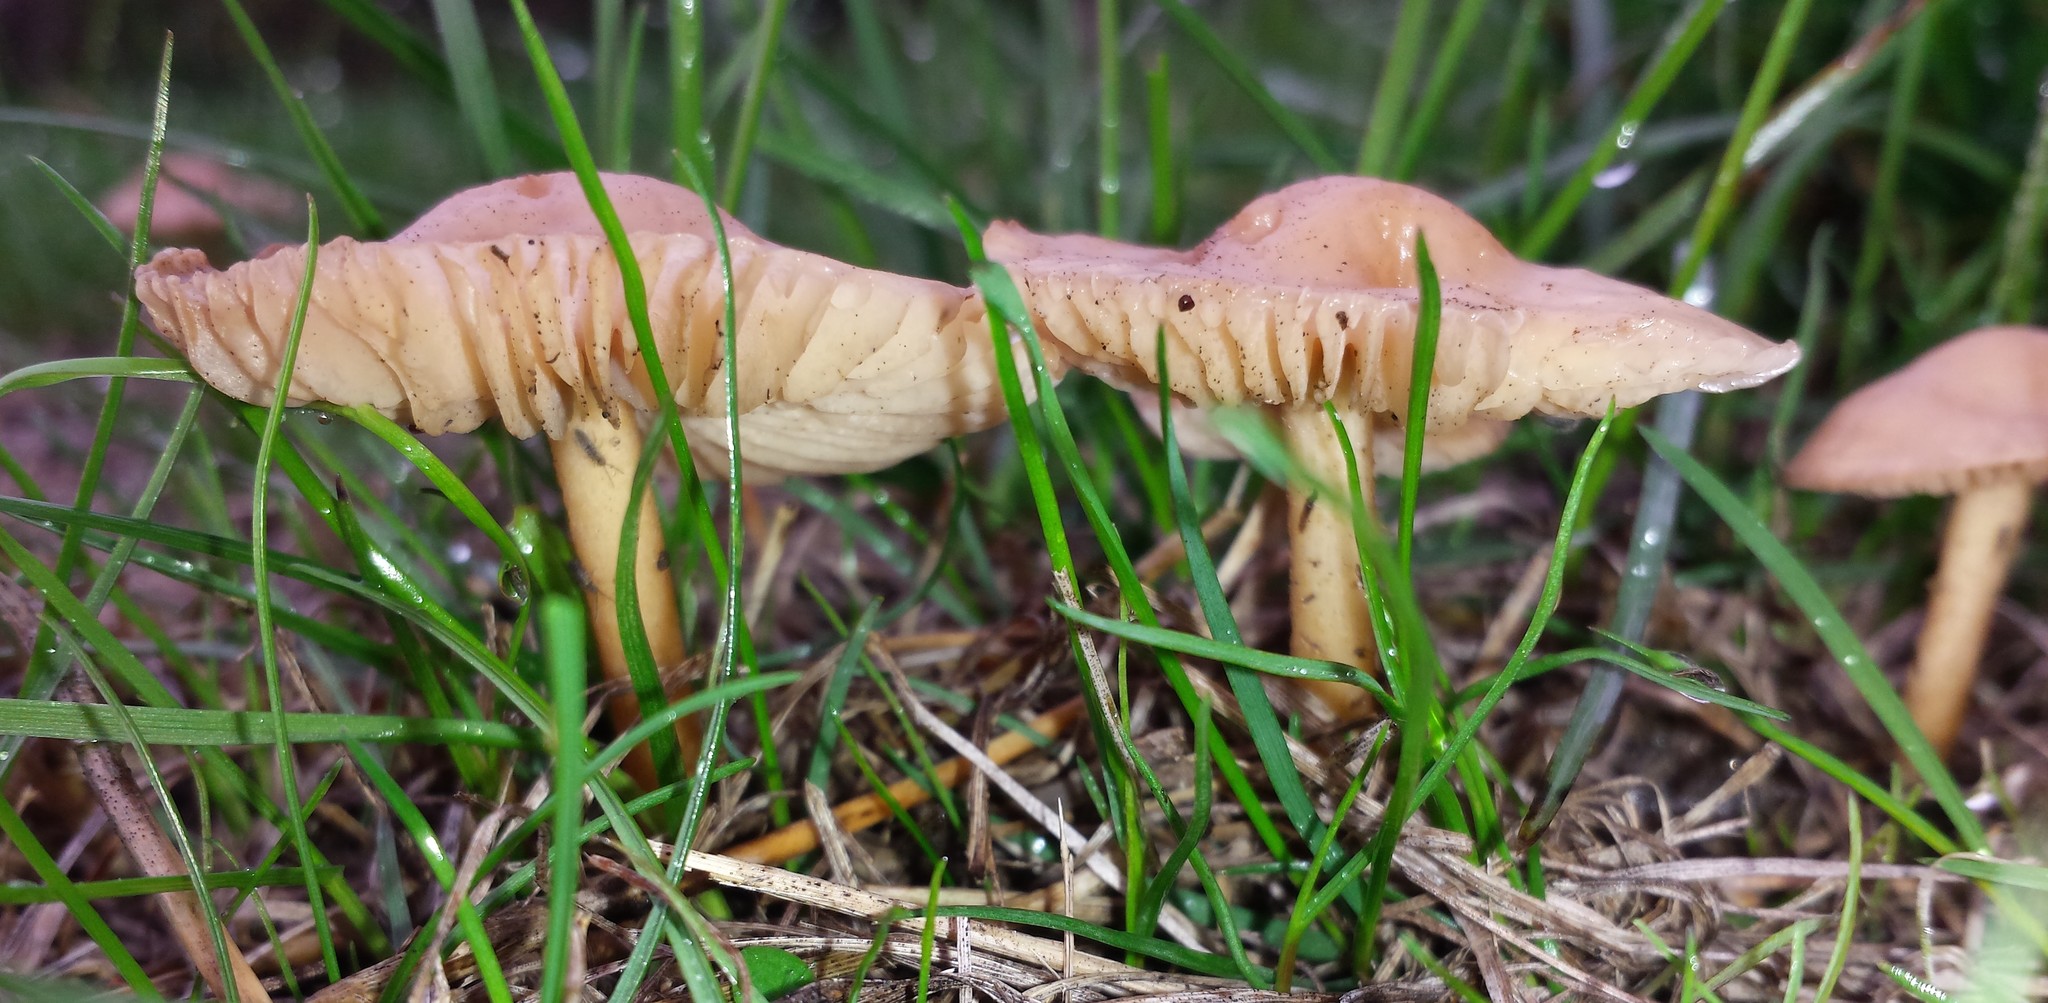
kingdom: Fungi
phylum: Basidiomycota
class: Agaricomycetes
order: Agaricales
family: Marasmiaceae
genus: Marasmius
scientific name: Marasmius oreades
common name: Fairy ring champignon
